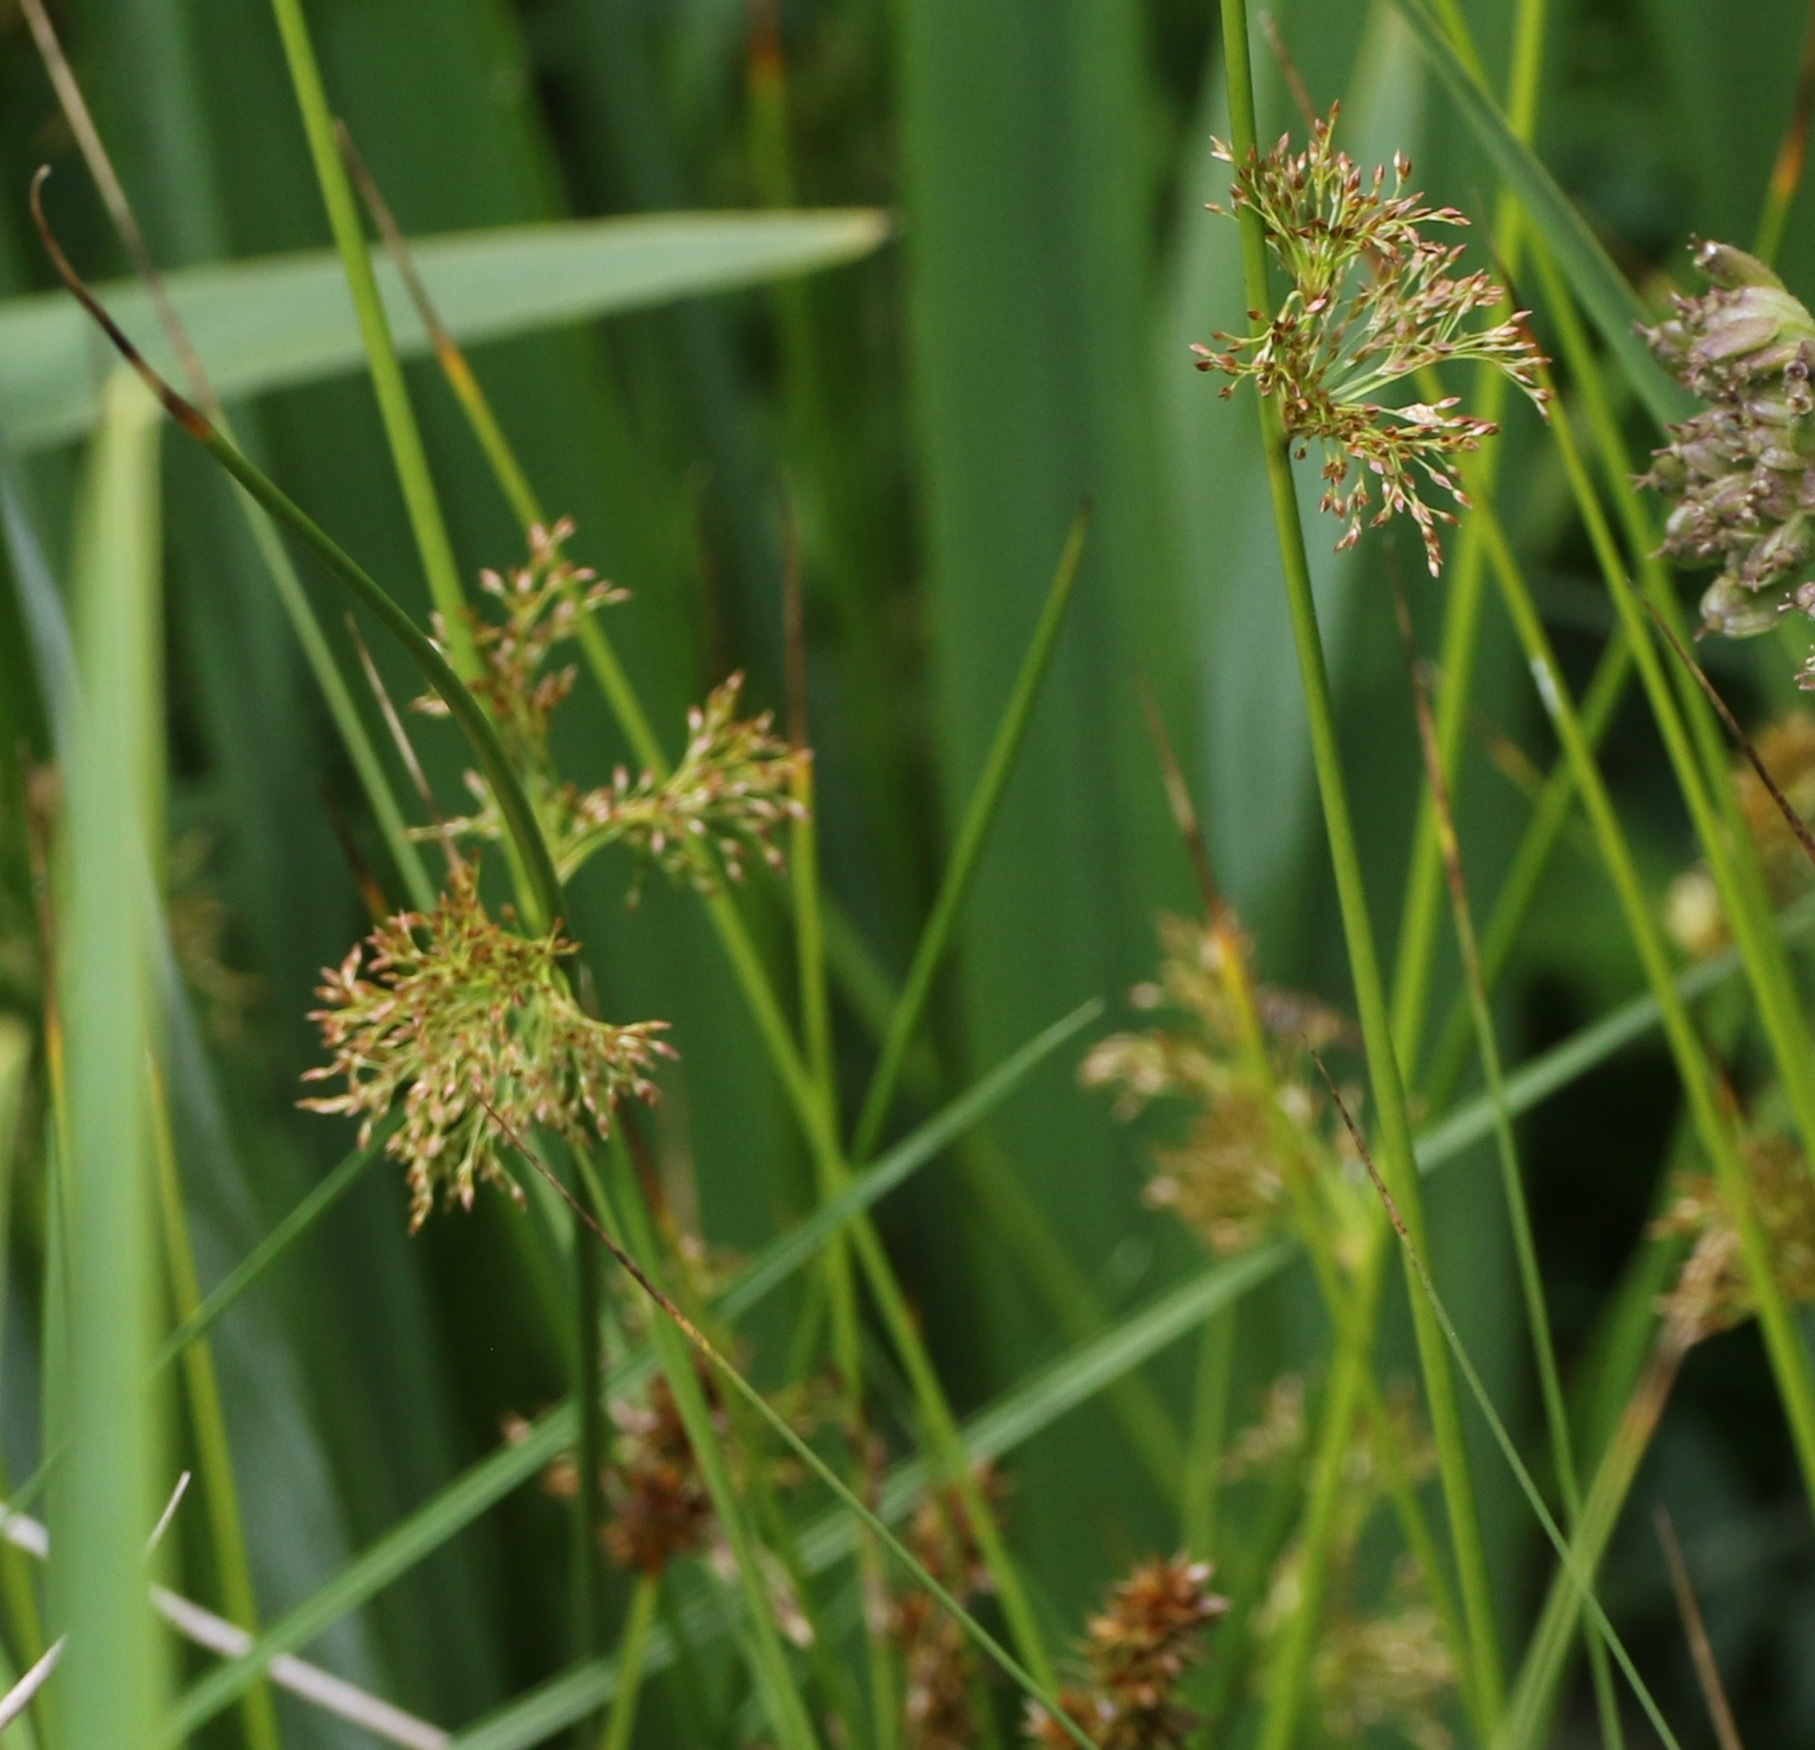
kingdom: Plantae
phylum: Tracheophyta
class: Liliopsida
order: Poales
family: Juncaceae
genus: Juncus
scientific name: Juncus effusus
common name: Soft rush
